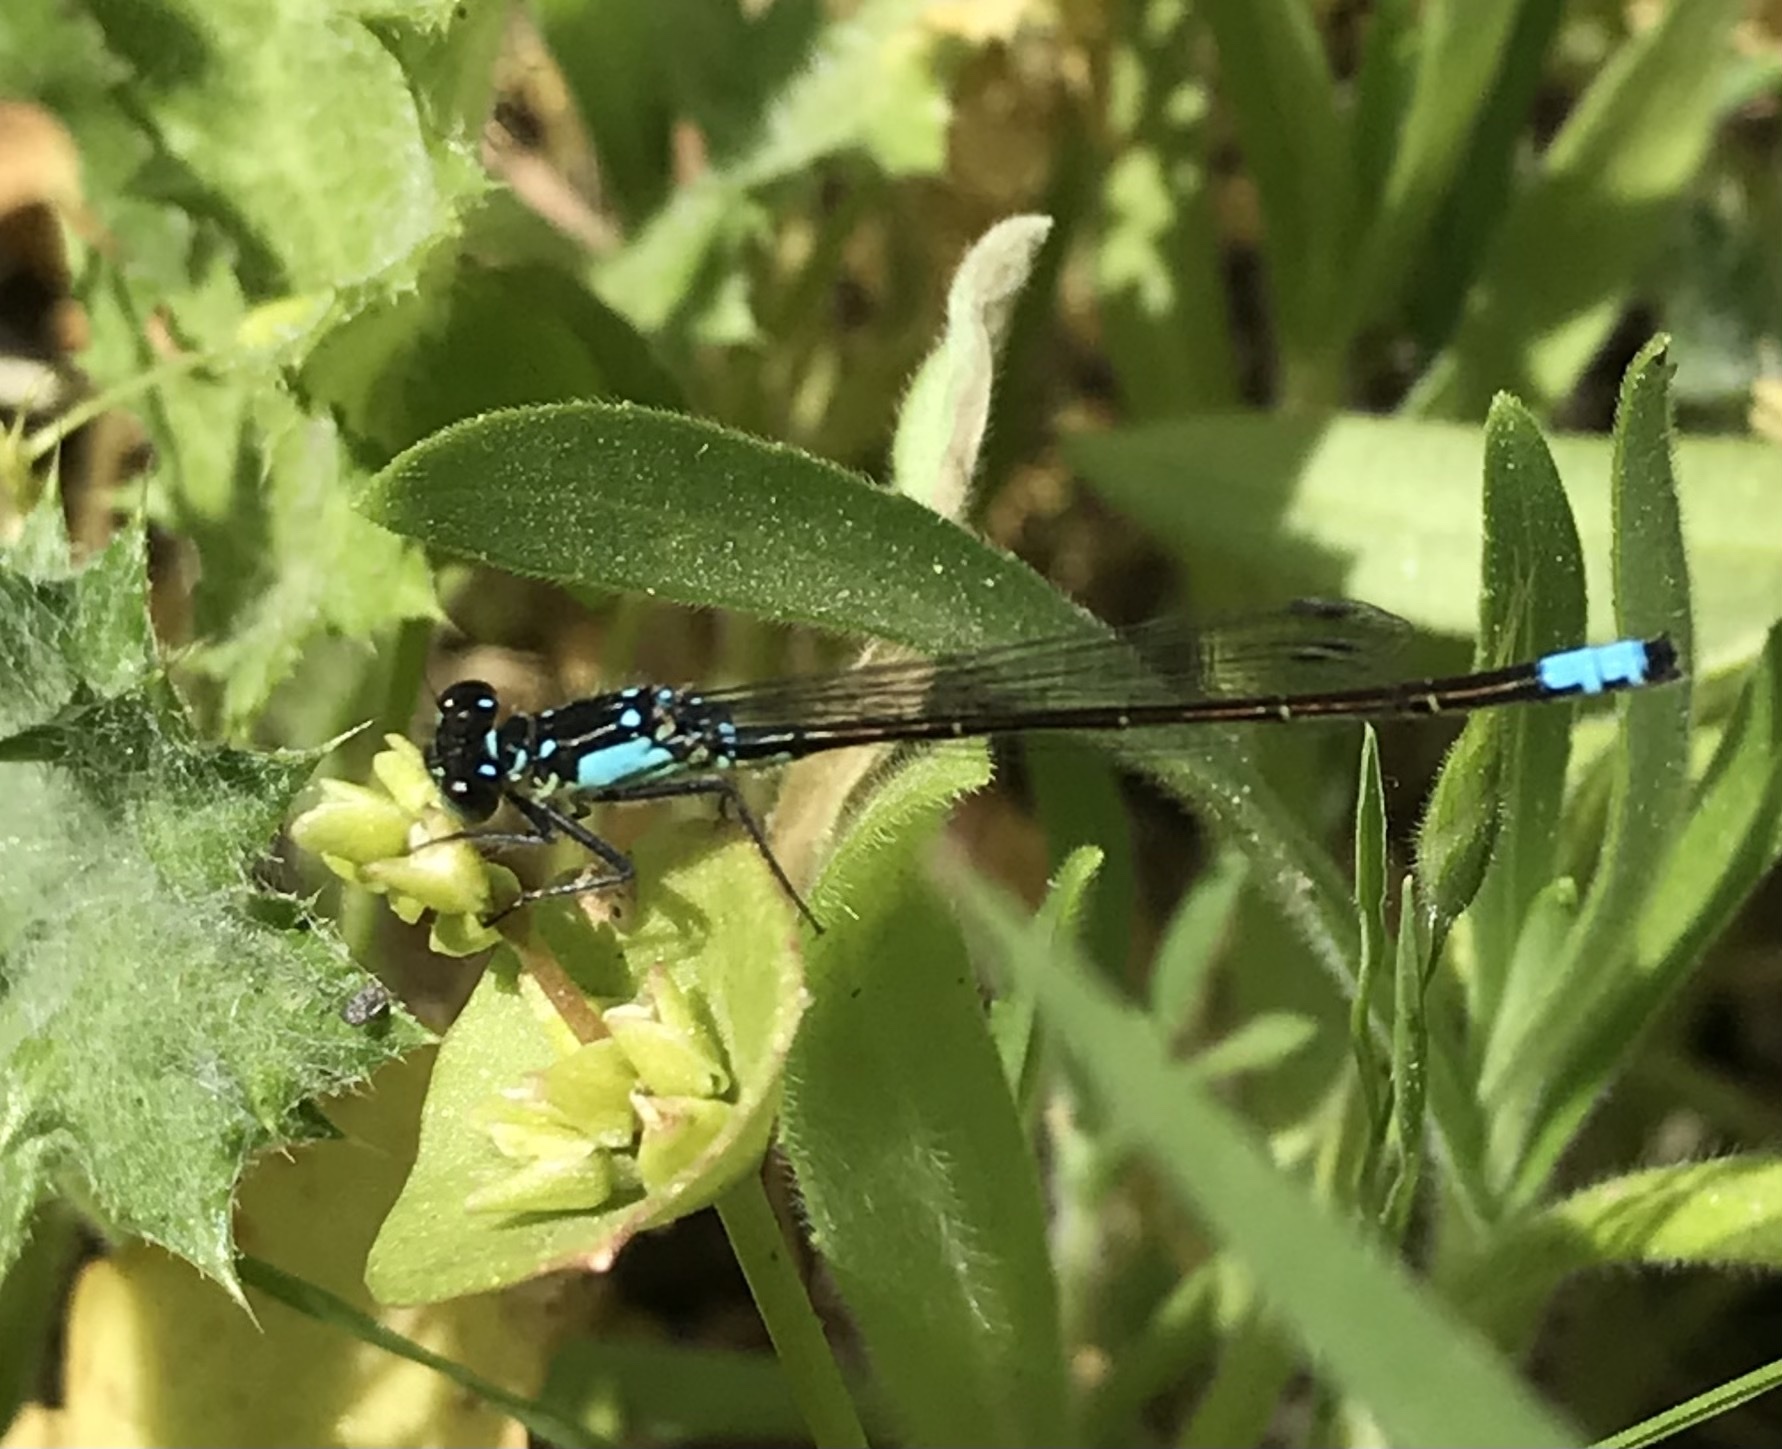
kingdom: Animalia
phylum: Arthropoda
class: Insecta
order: Odonata
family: Coenagrionidae
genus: Ischnura
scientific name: Ischnura cervula
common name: Pacific forktail
